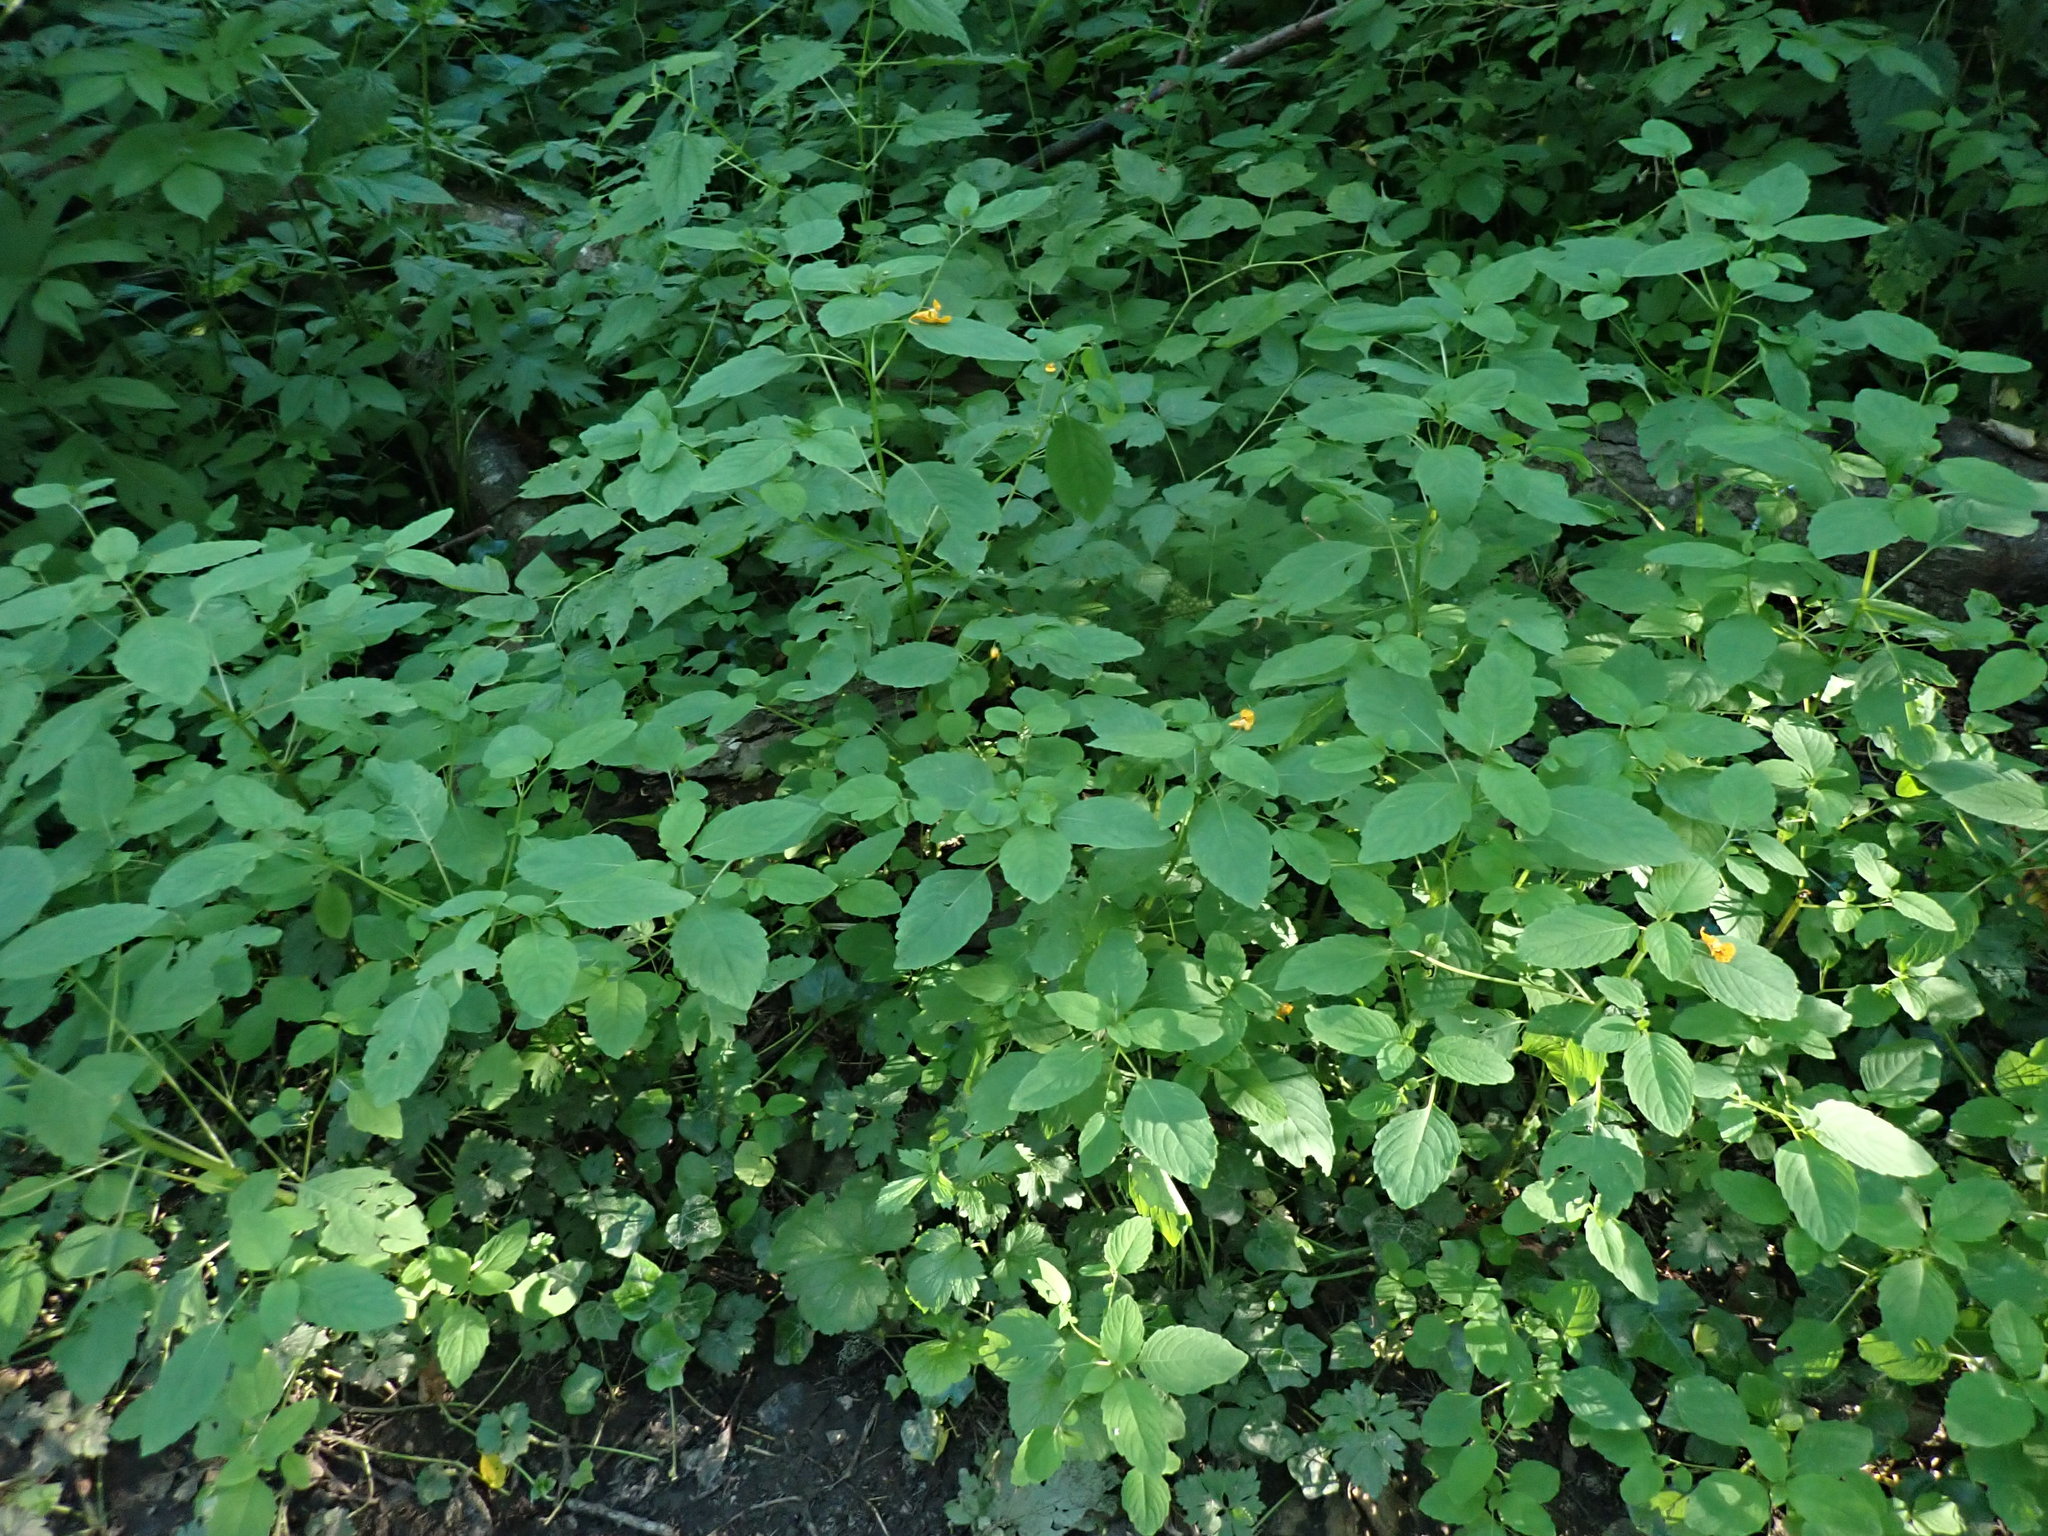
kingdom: Plantae
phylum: Tracheophyta
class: Magnoliopsida
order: Ericales
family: Balsaminaceae
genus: Impatiens
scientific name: Impatiens capensis
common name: Orange balsam
